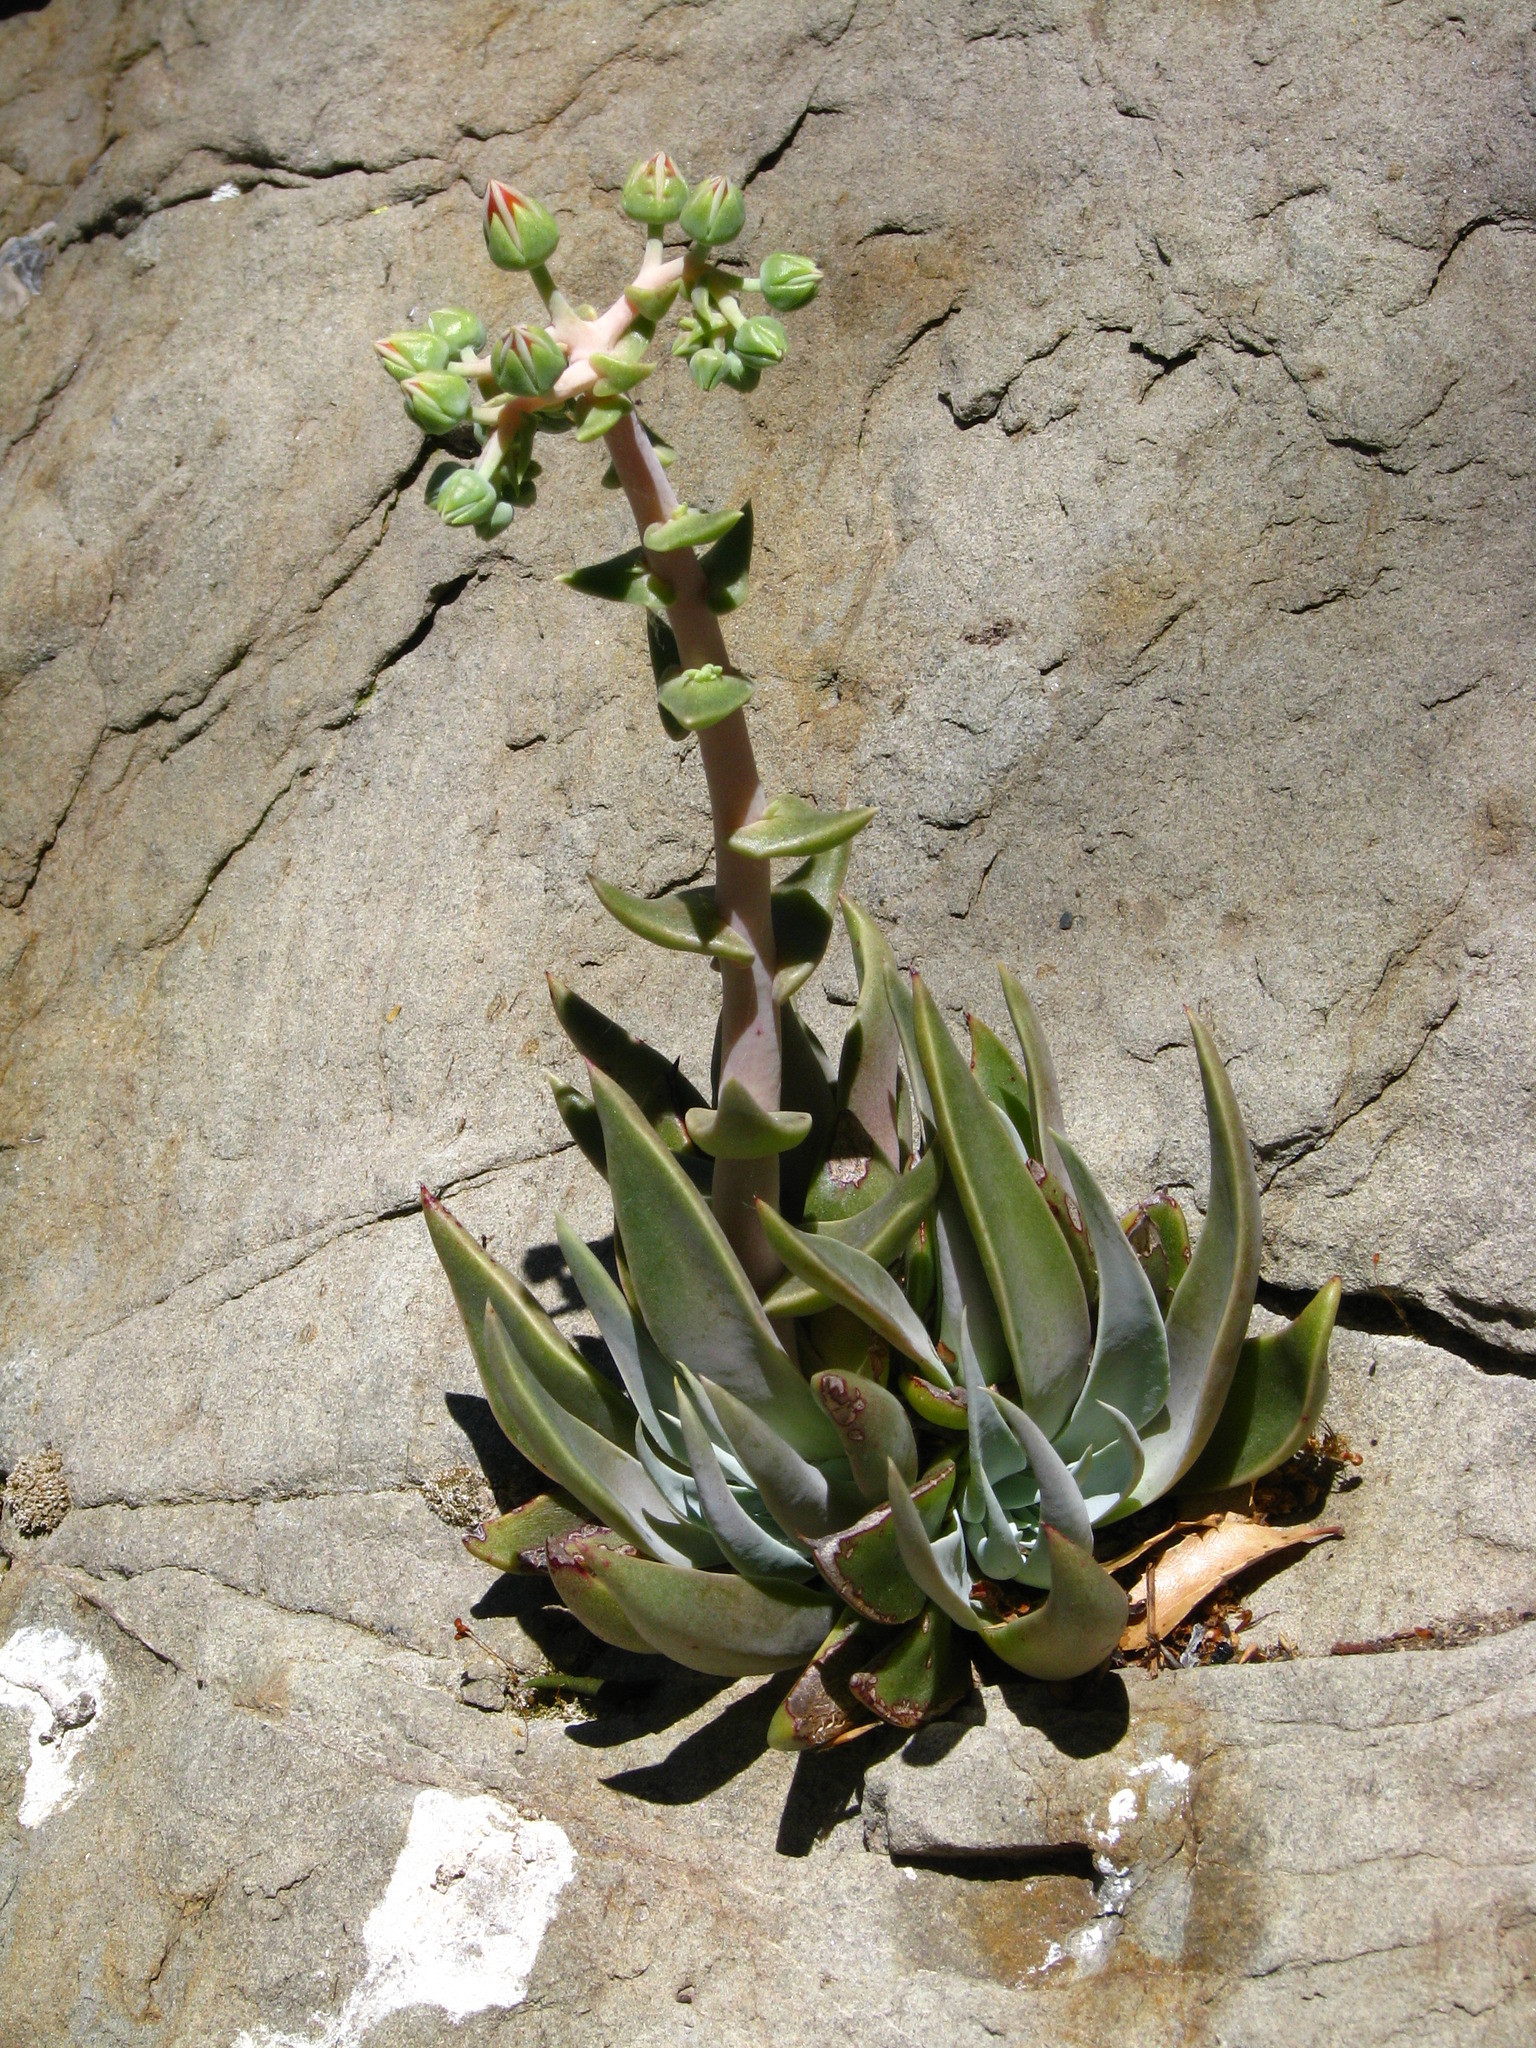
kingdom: Plantae
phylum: Tracheophyta
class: Magnoliopsida
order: Saxifragales
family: Crassulaceae
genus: Dudleya
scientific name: Dudleya lanceolata
